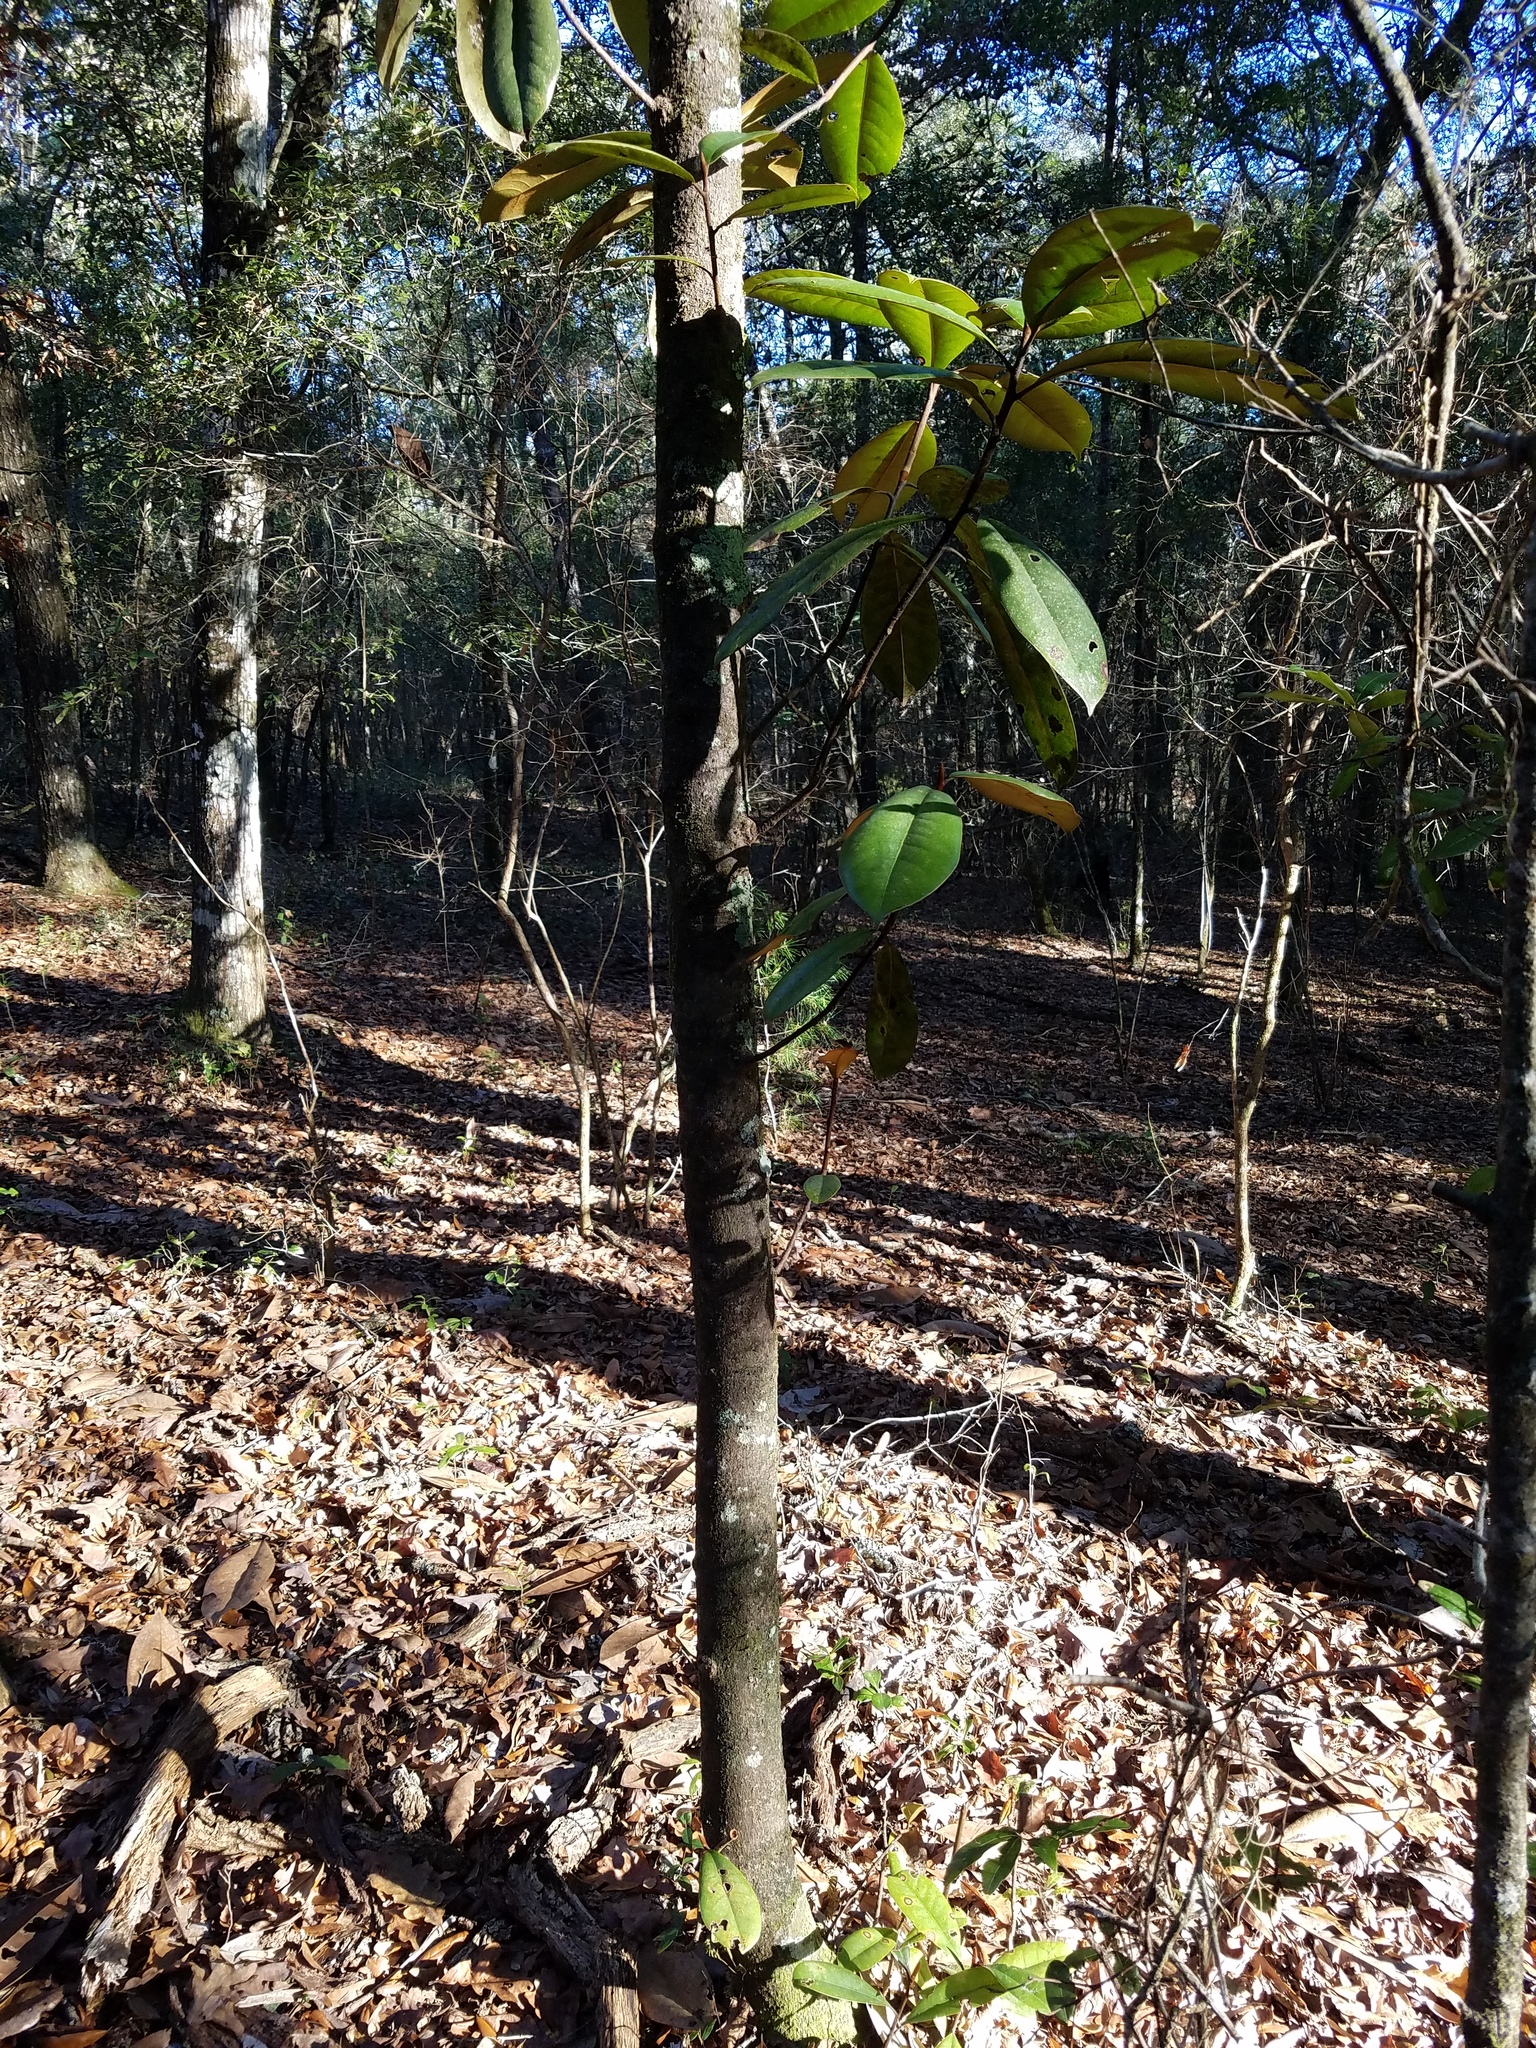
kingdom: Plantae
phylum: Tracheophyta
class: Magnoliopsida
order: Magnoliales
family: Magnoliaceae
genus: Magnolia
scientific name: Magnolia grandiflora
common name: Southern magnolia
